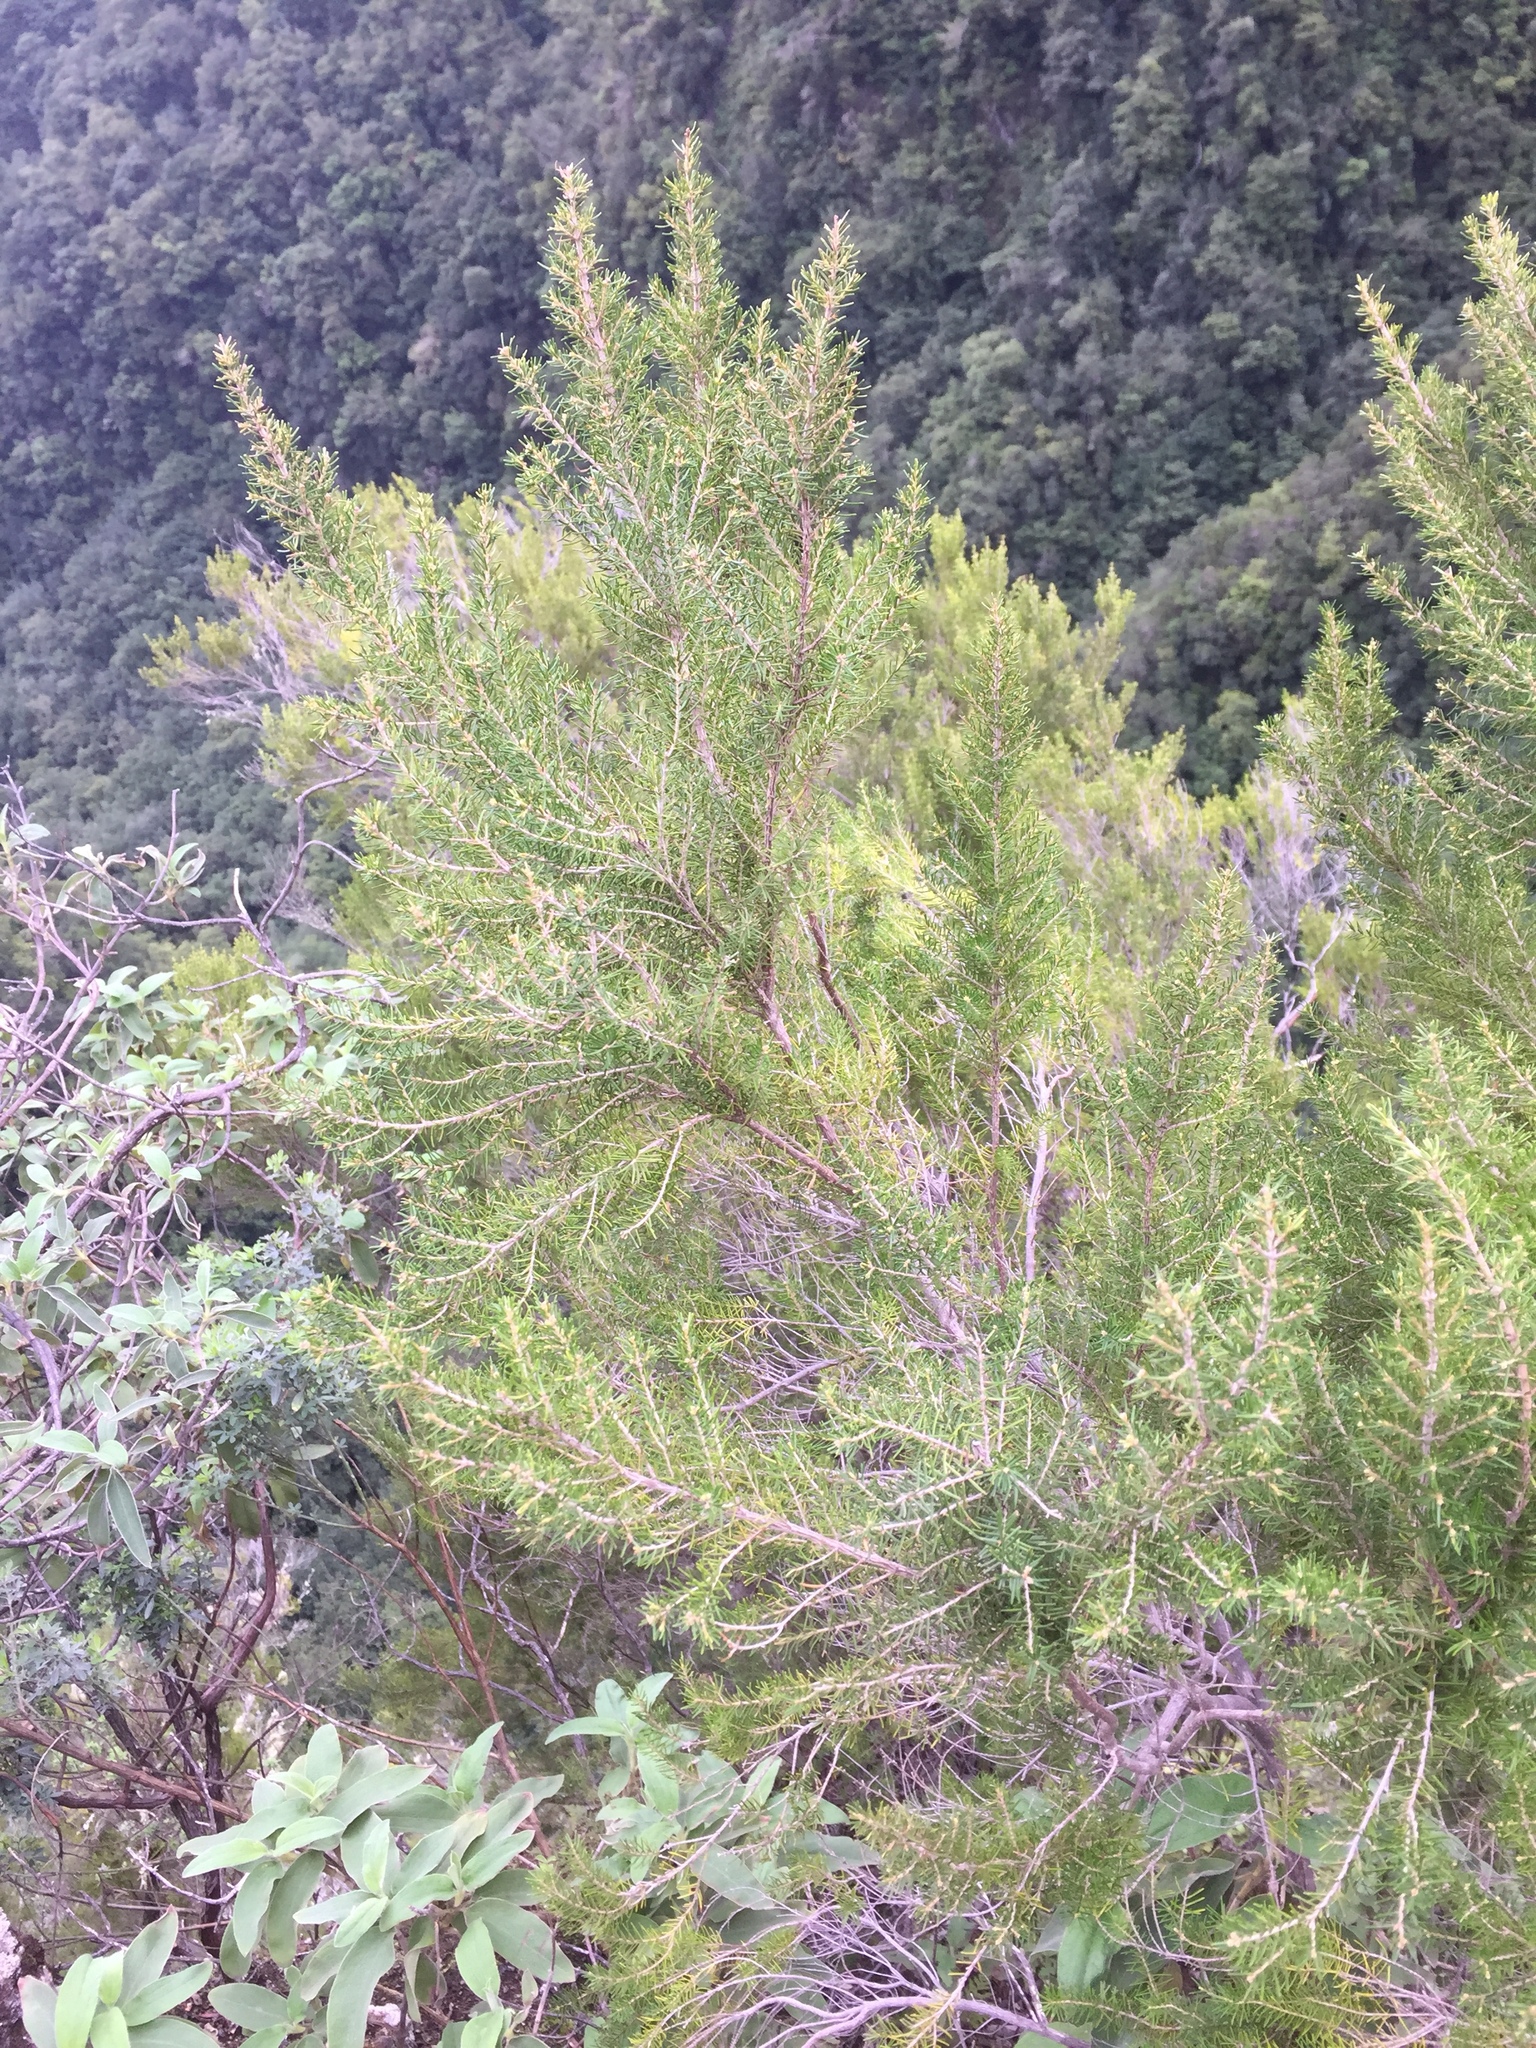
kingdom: Plantae
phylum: Tracheophyta
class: Magnoliopsida
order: Ericales
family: Ericaceae
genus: Erica
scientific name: Erica canariensis
